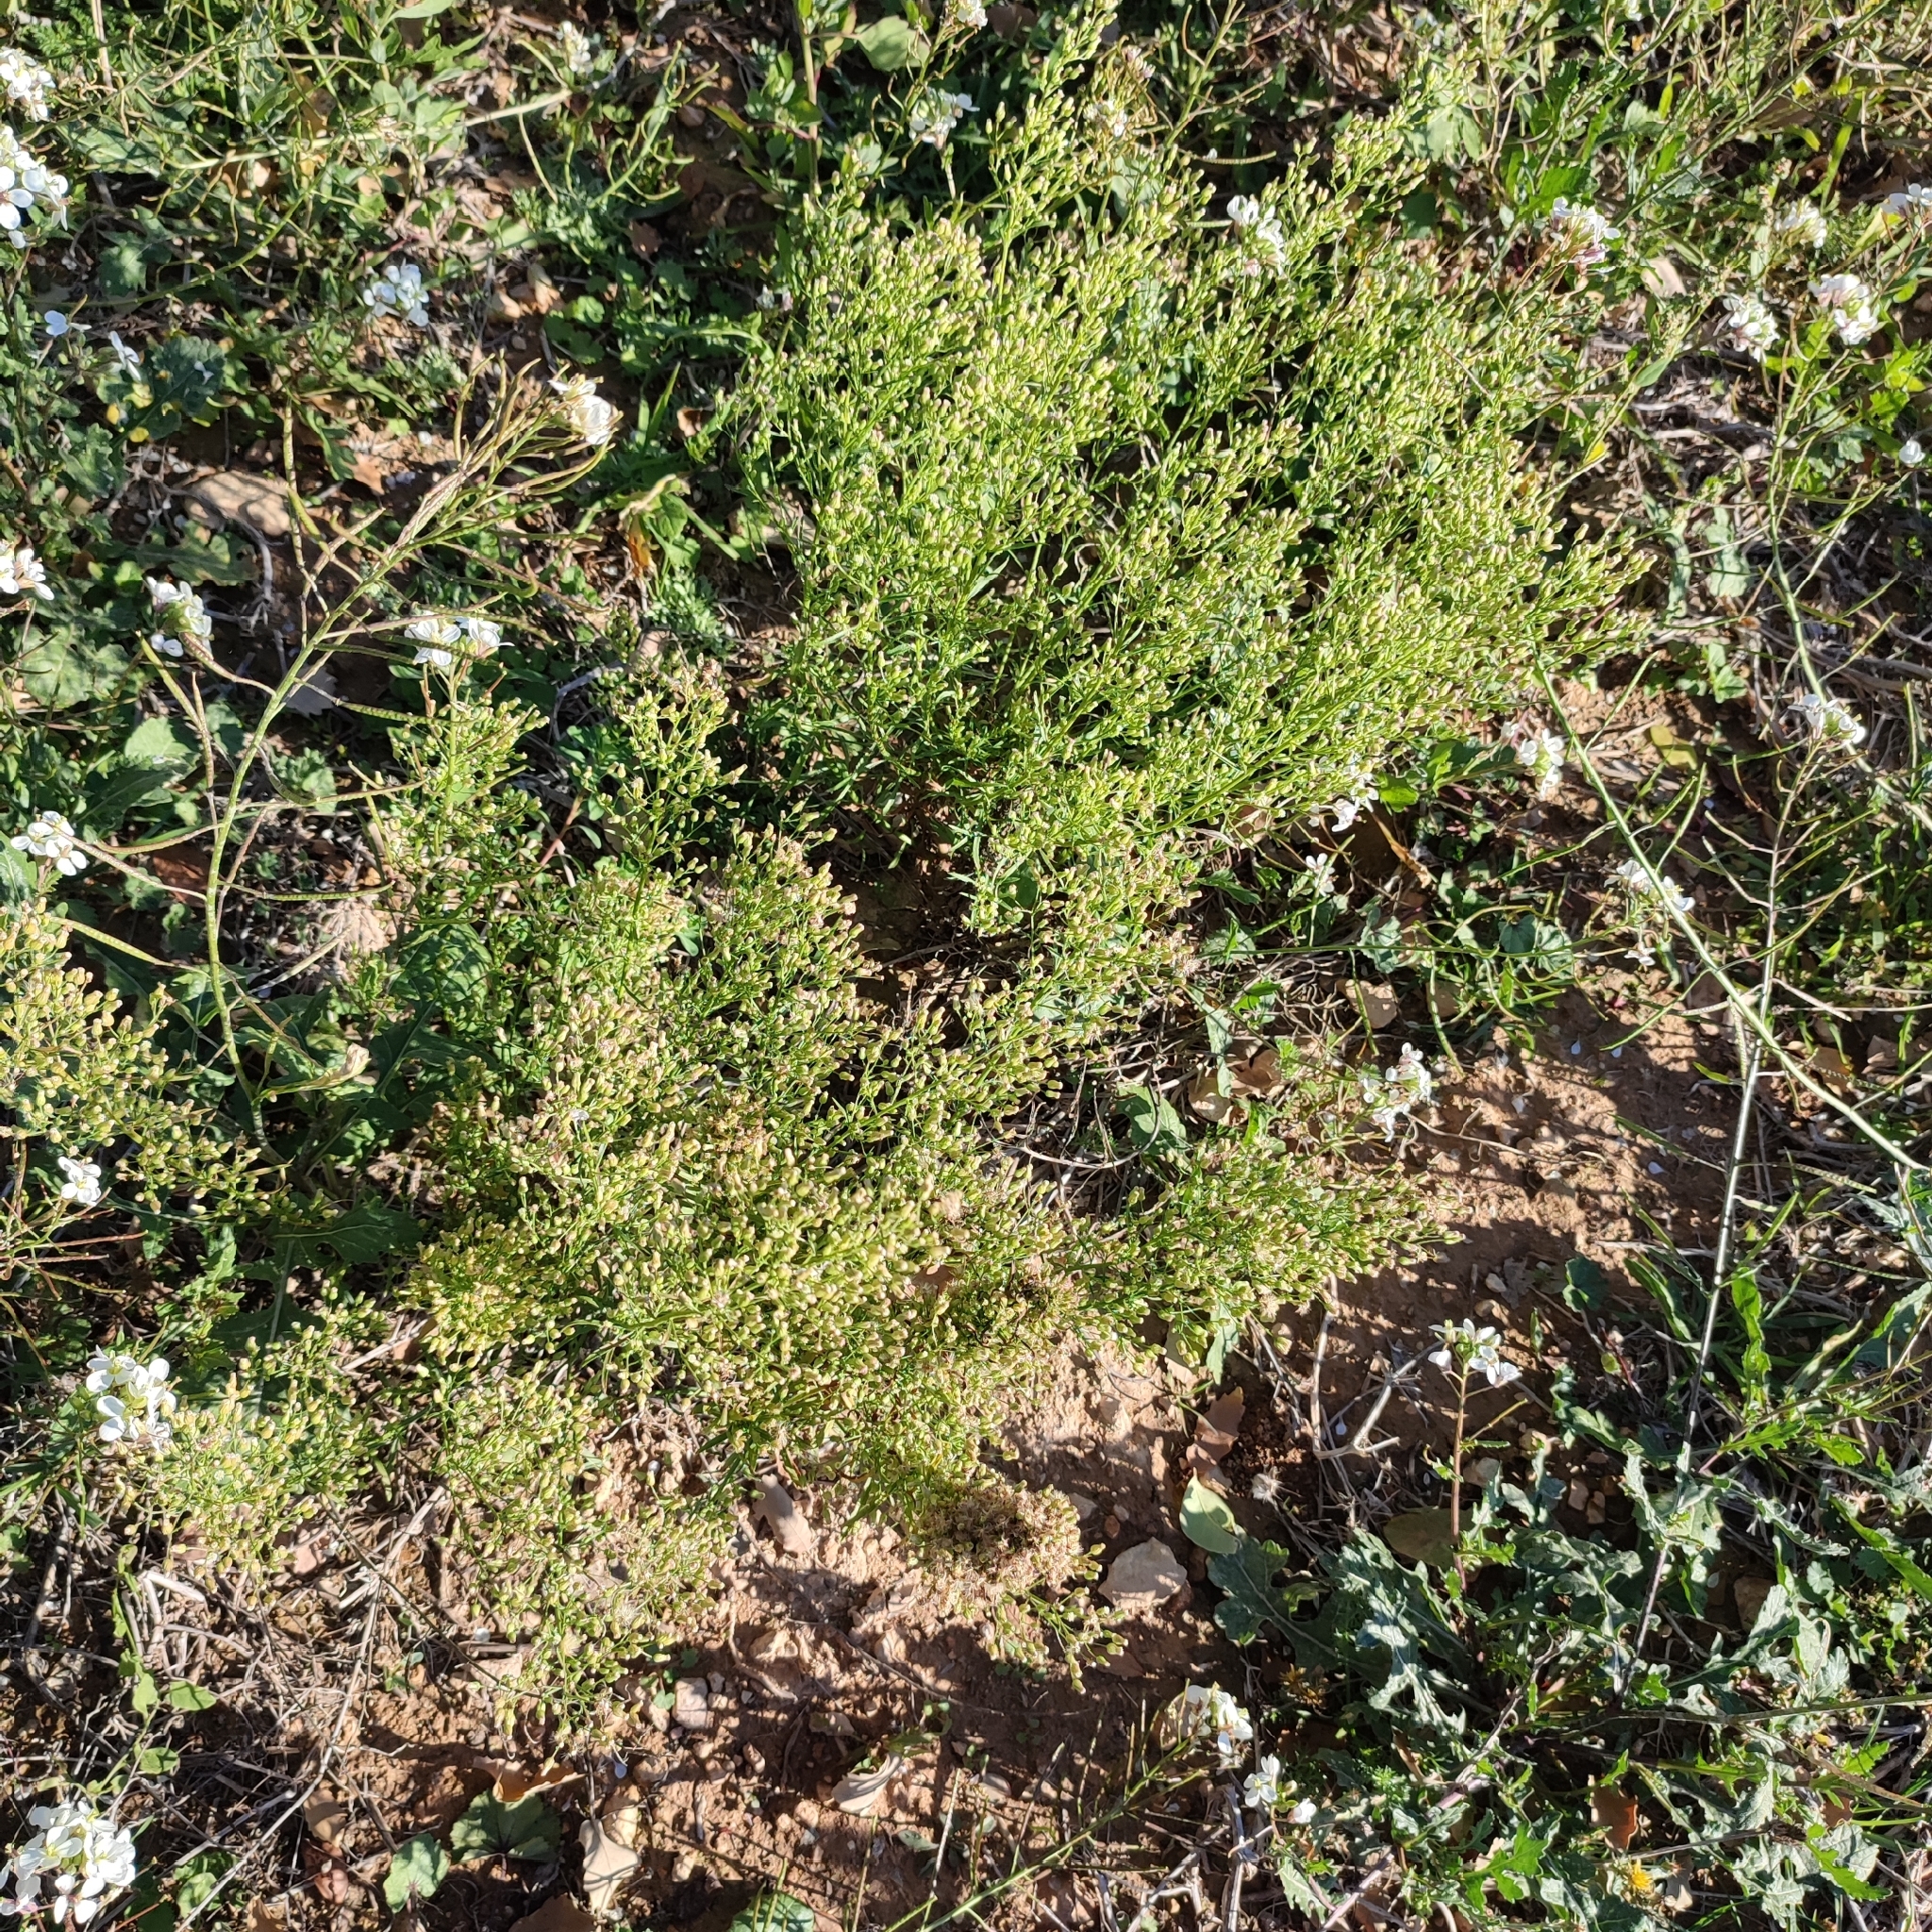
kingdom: Plantae
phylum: Tracheophyta
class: Magnoliopsida
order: Asterales
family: Asteraceae
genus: Erigeron
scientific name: Erigeron canadensis
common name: Canadian fleabane
